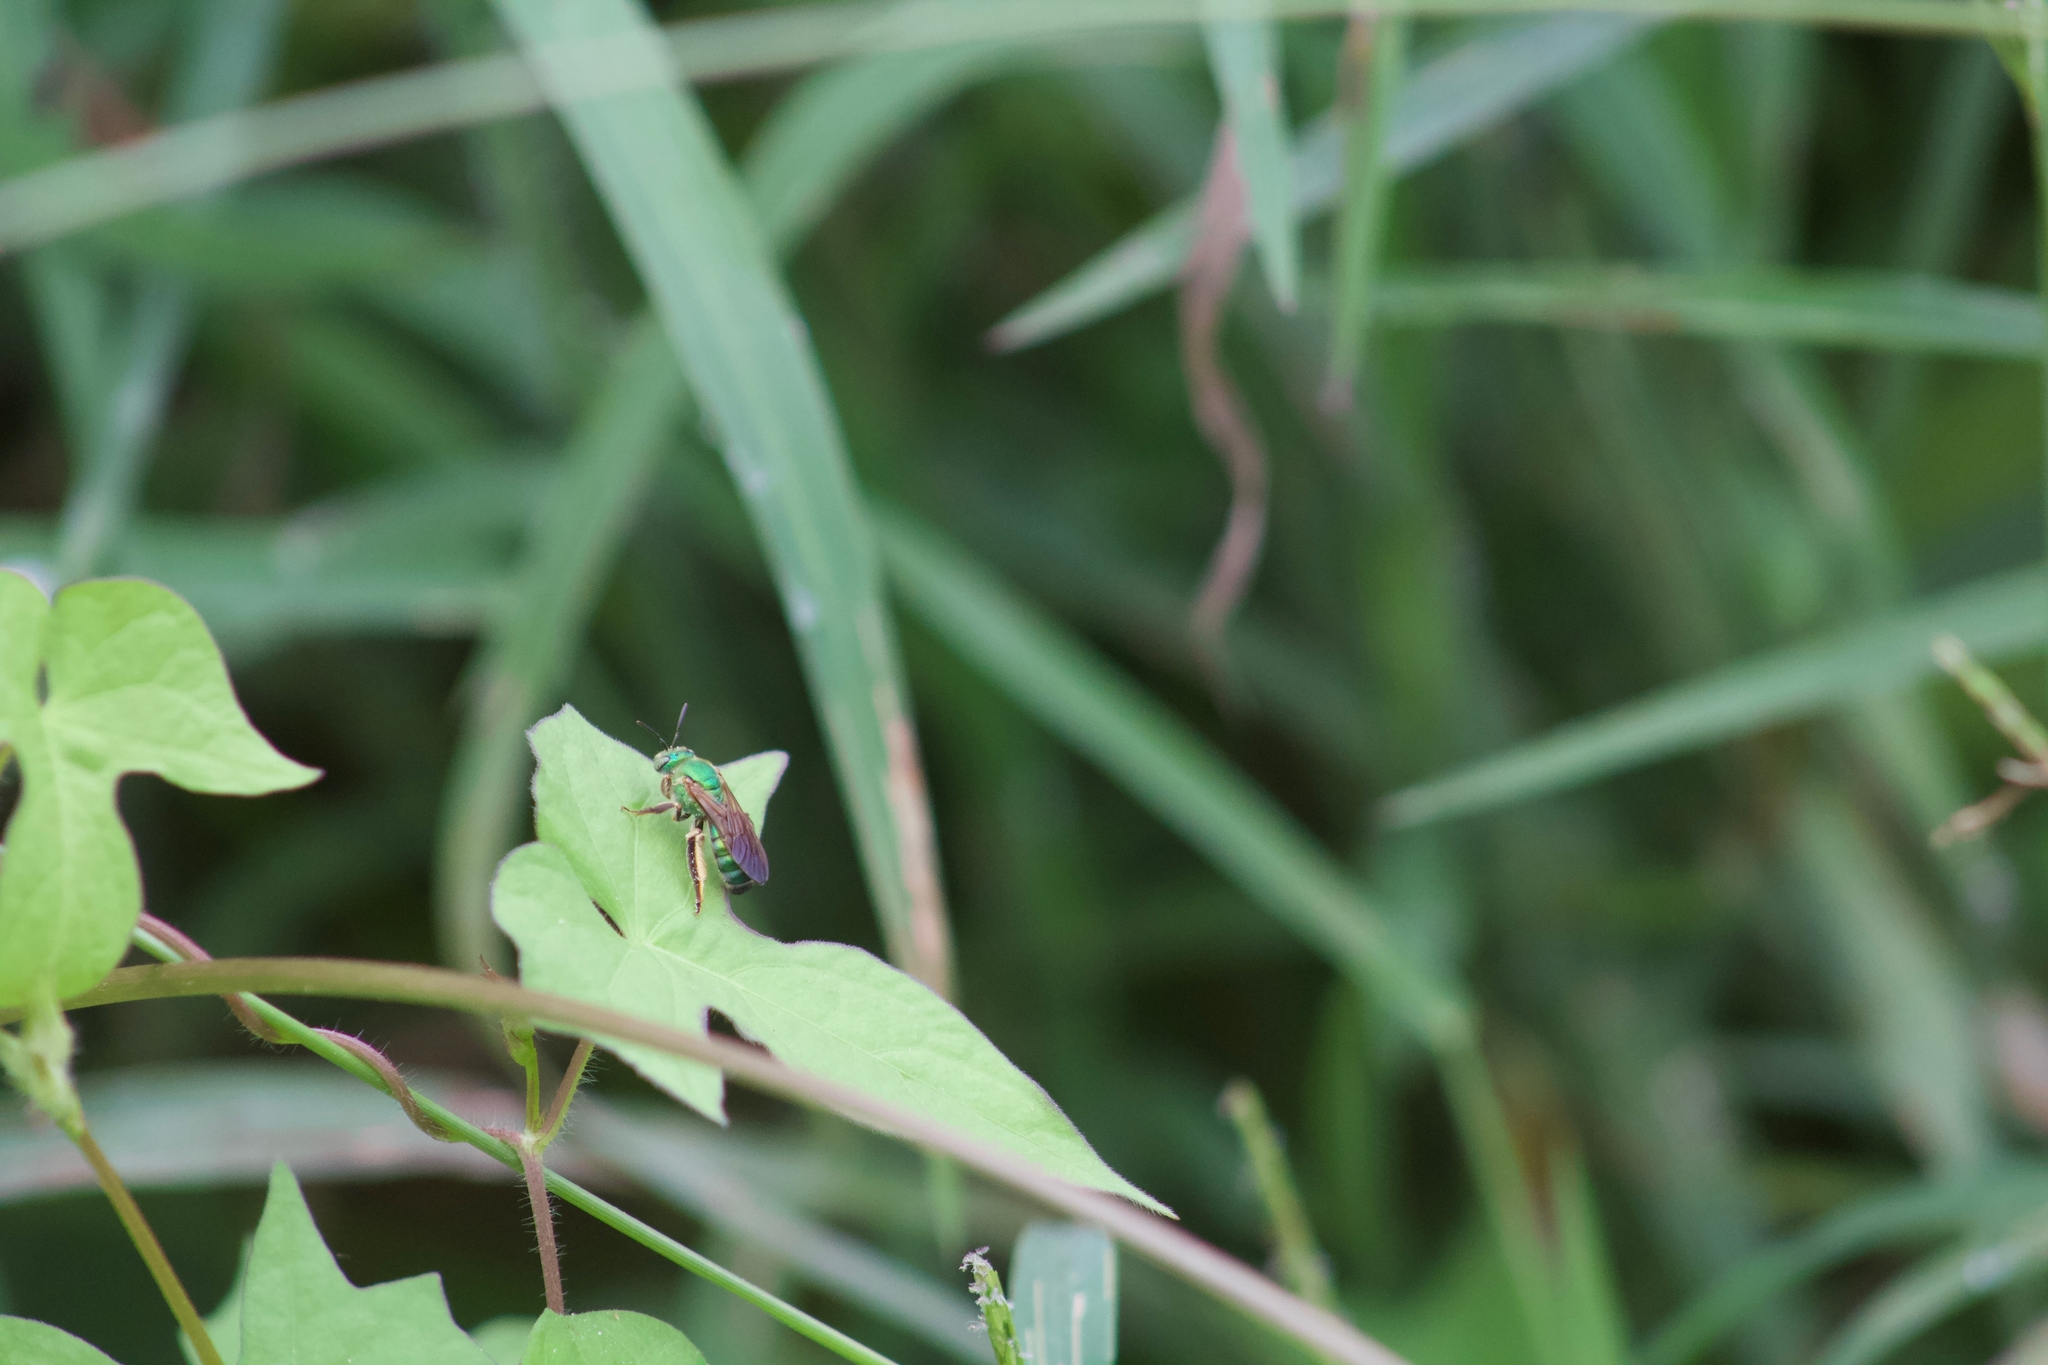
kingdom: Animalia
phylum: Arthropoda
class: Insecta
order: Hymenoptera
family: Halictidae
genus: Agapostemon
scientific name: Agapostemon splendens
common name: Brown-winged striped sweat bee
